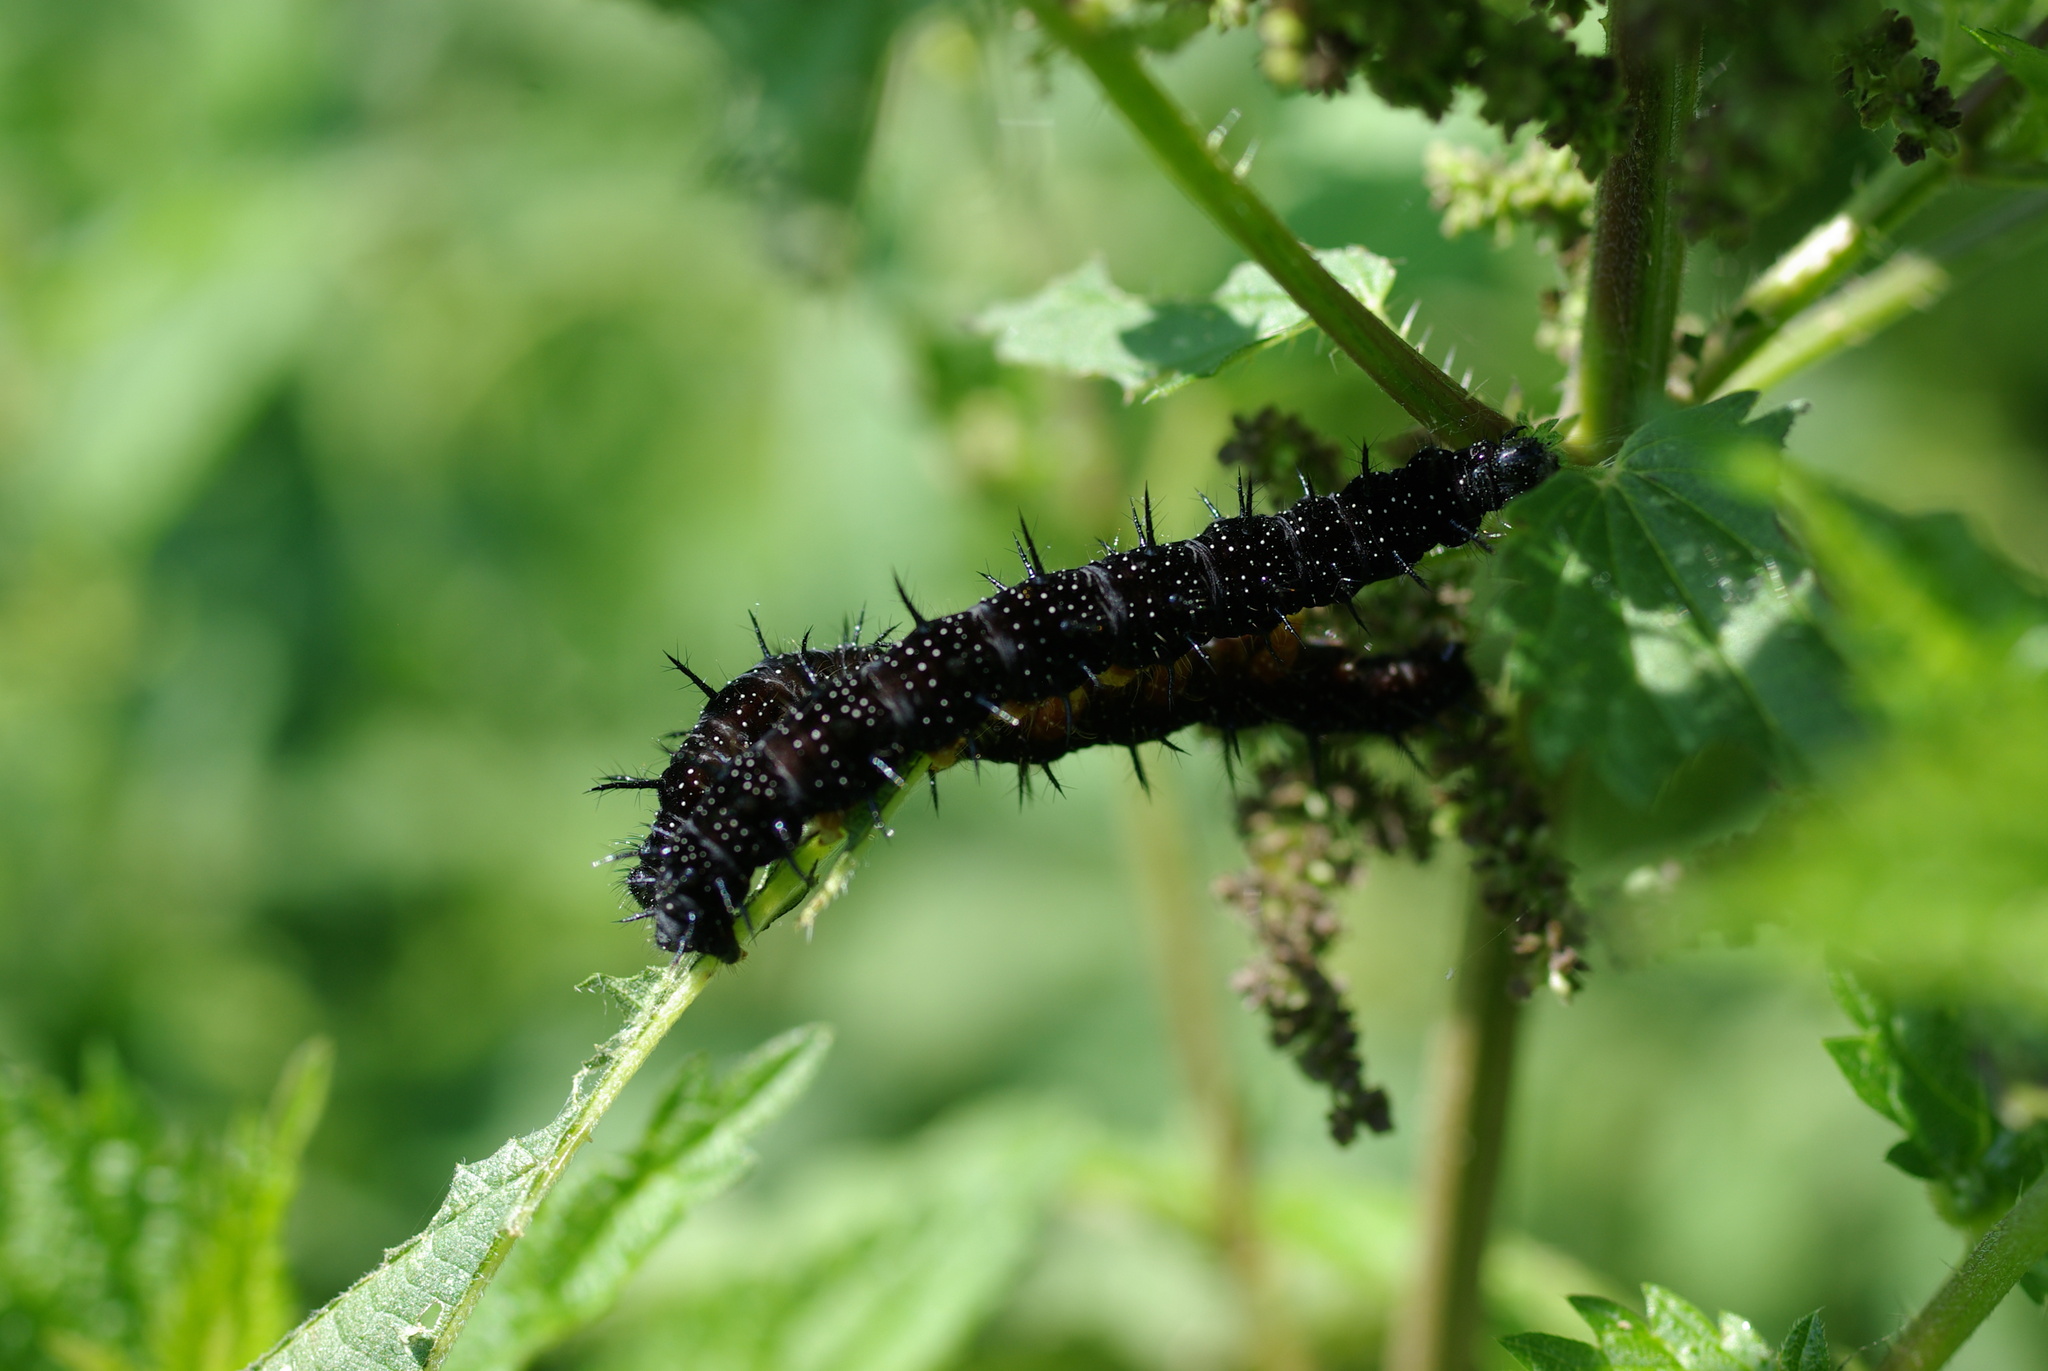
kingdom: Animalia
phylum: Arthropoda
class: Insecta
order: Lepidoptera
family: Nymphalidae
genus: Aglais
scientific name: Aglais io
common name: Peacock
